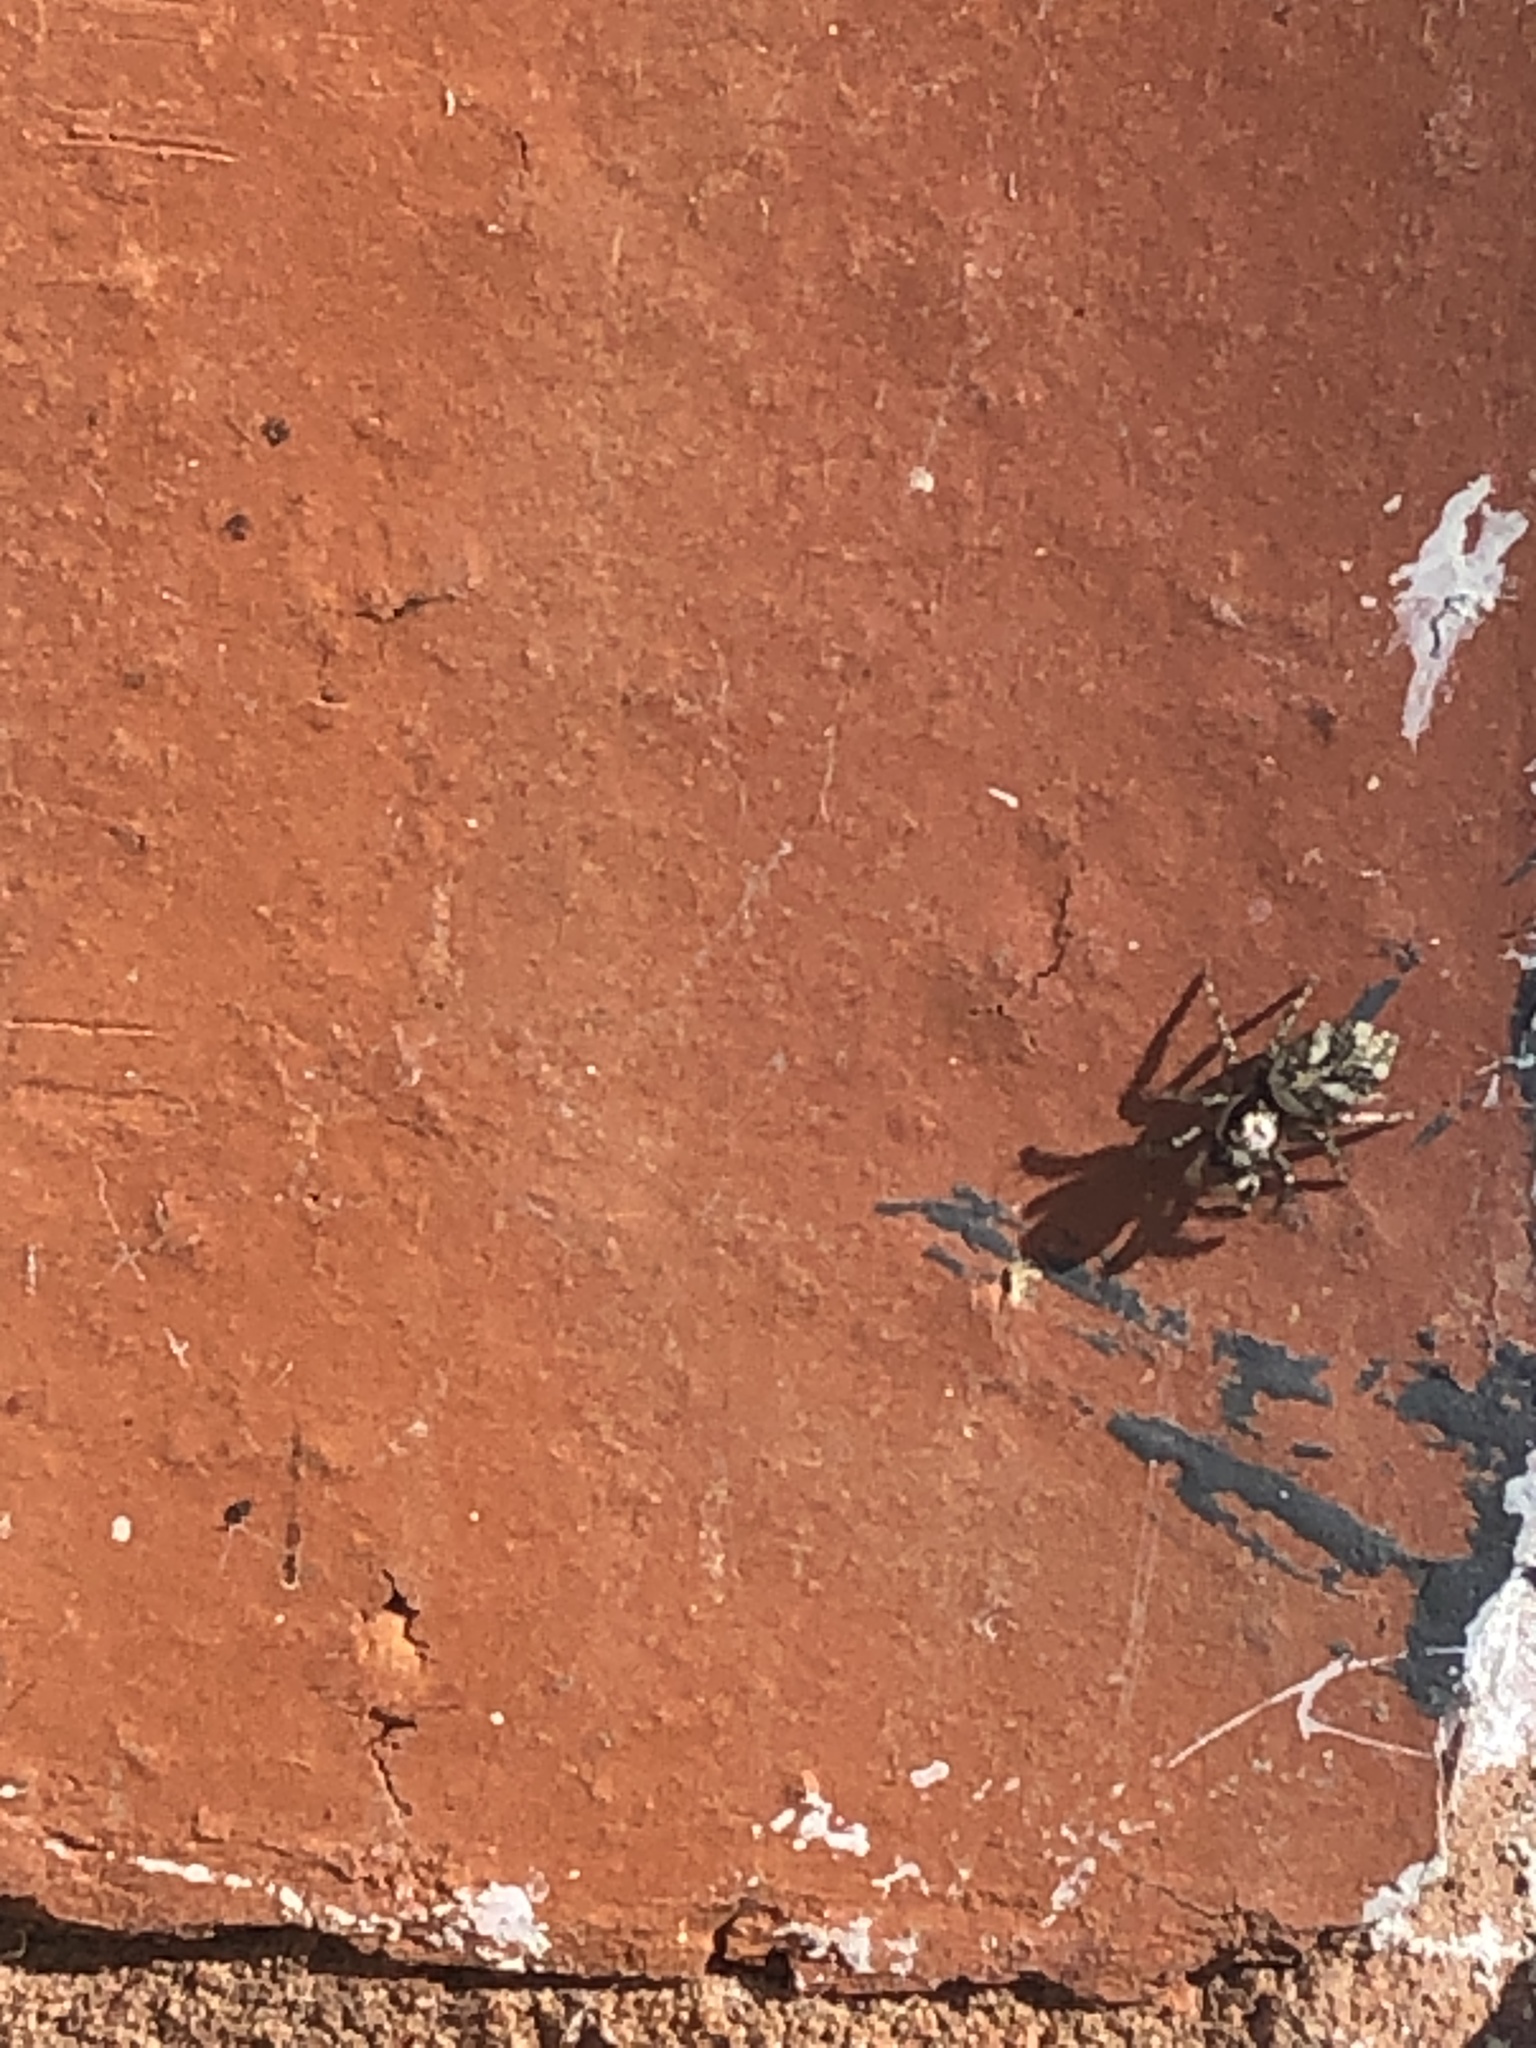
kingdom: Animalia
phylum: Arthropoda
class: Arachnida
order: Araneae
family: Salticidae
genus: Salticus
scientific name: Salticus scenicus
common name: Zebra jumper
